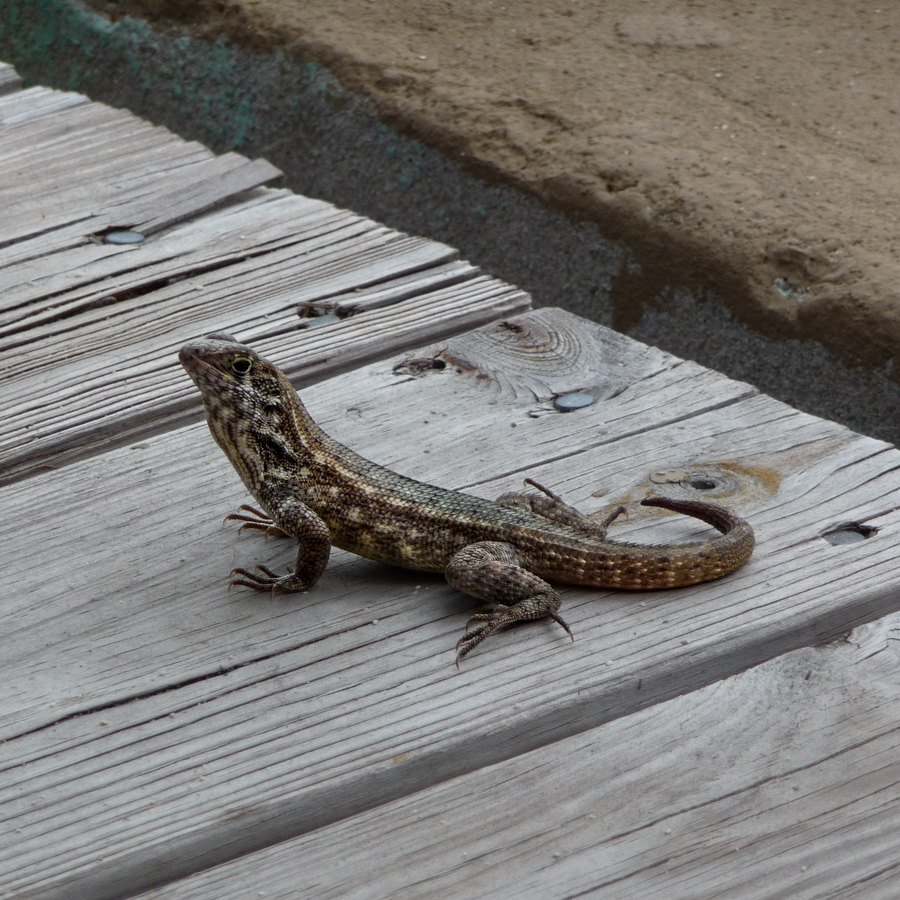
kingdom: Animalia
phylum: Chordata
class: Squamata
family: Leiocephalidae
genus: Leiocephalus
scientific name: Leiocephalus varius
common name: Cayman curlytail
